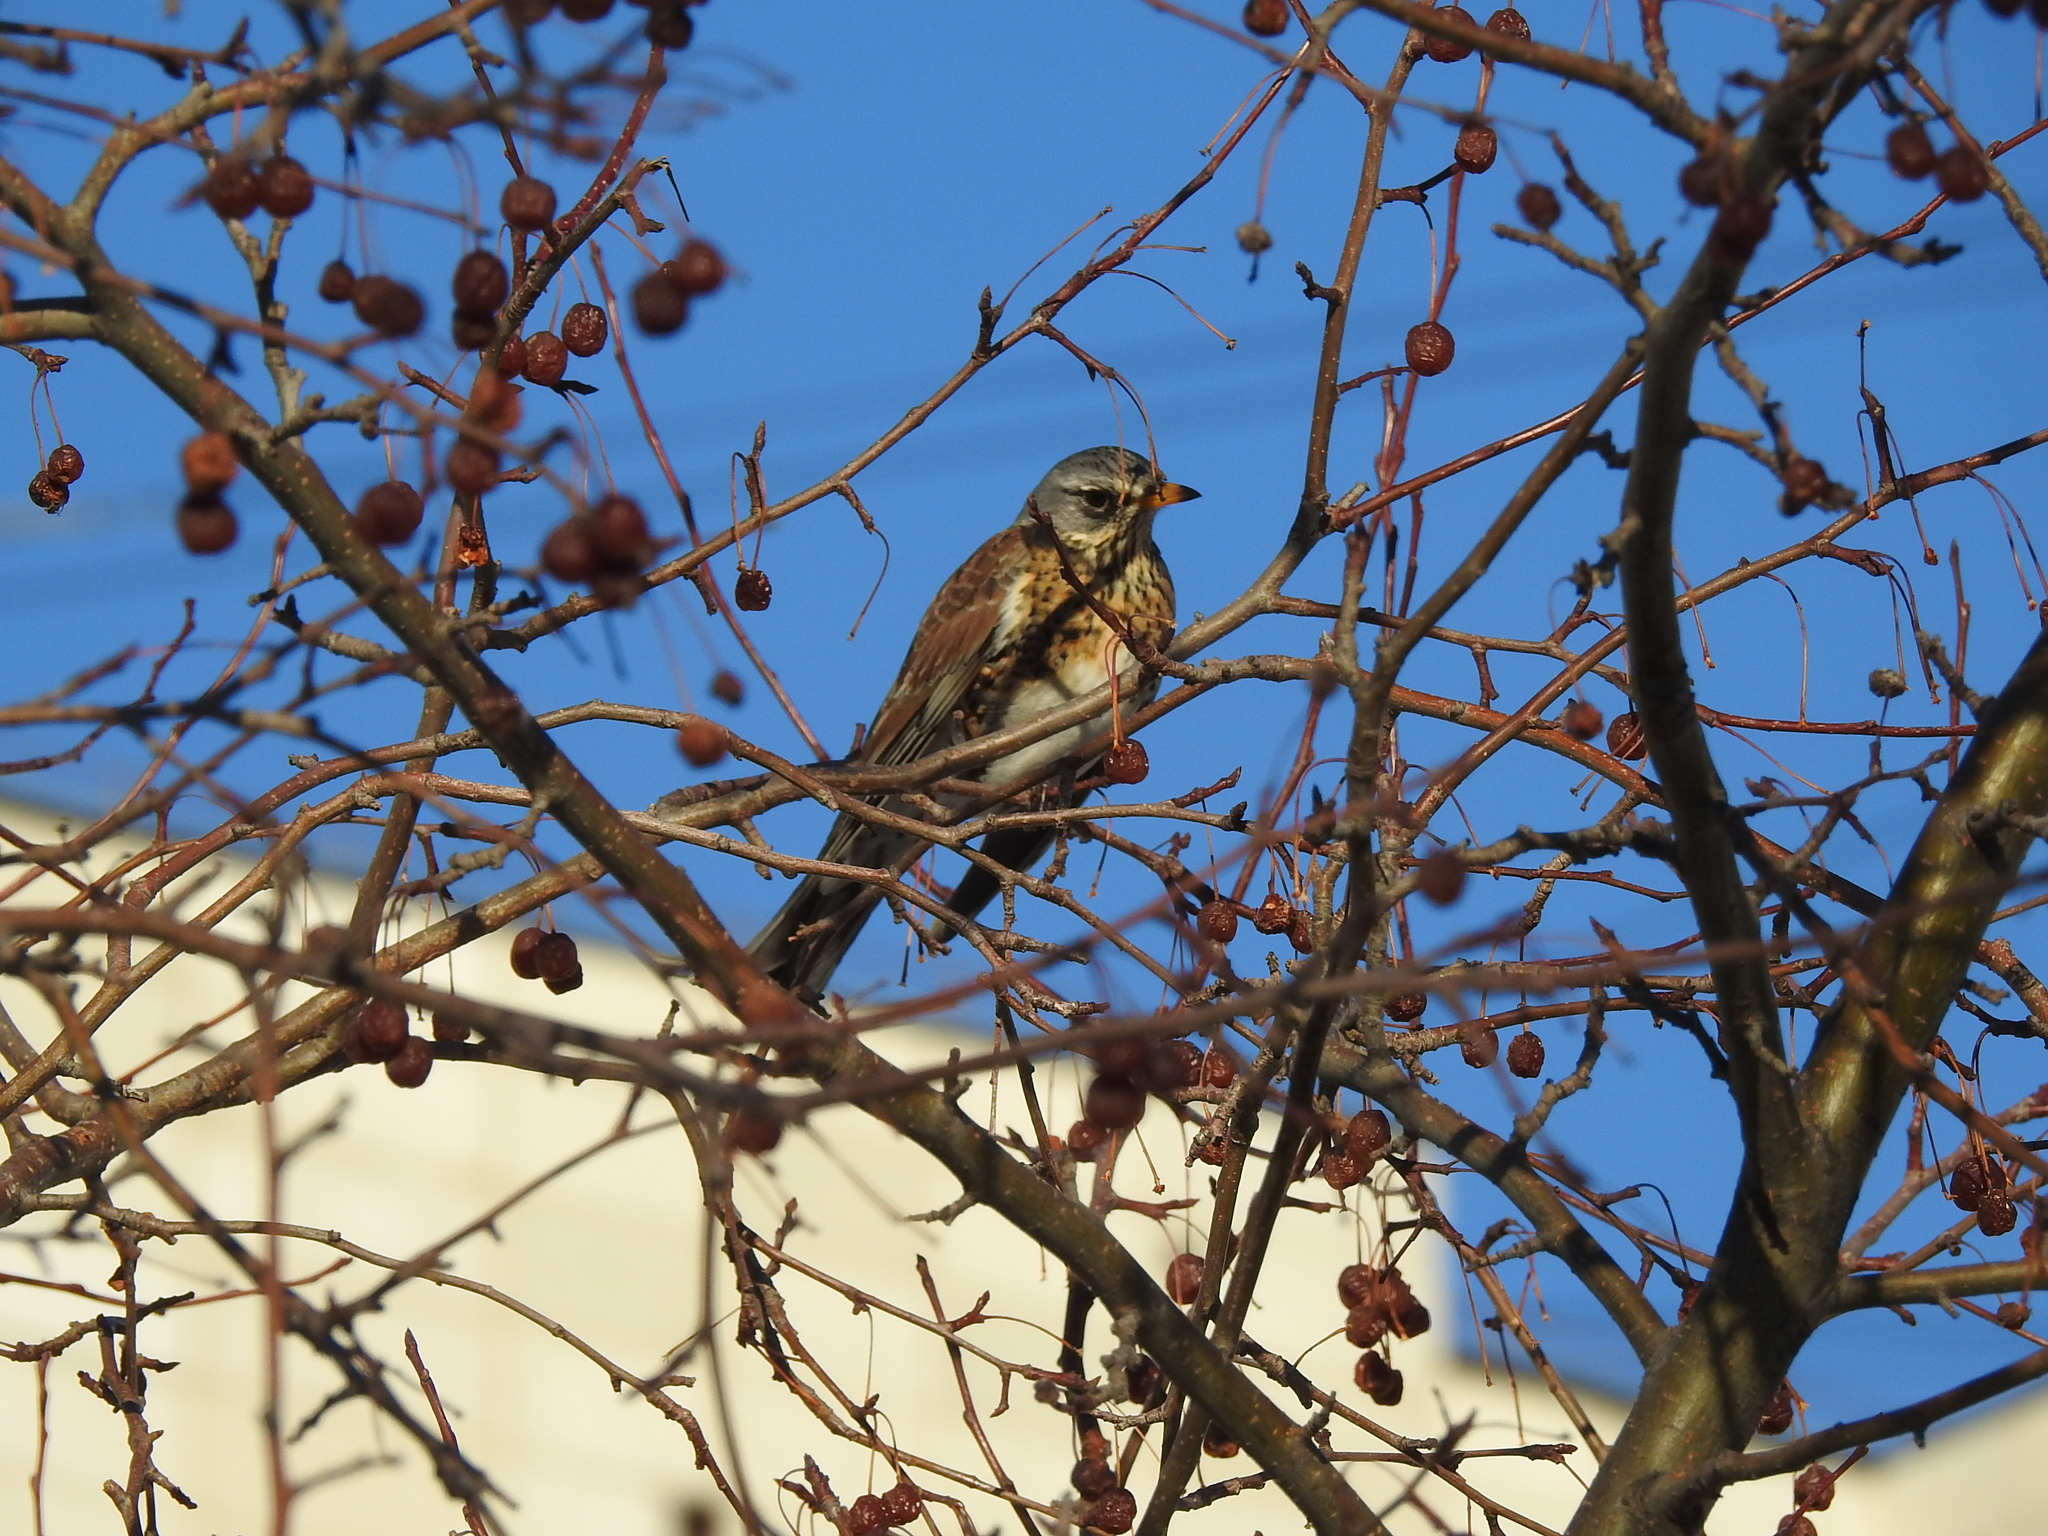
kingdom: Animalia
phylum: Chordata
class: Aves
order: Passeriformes
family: Turdidae
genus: Turdus
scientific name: Turdus pilaris
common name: Fieldfare
